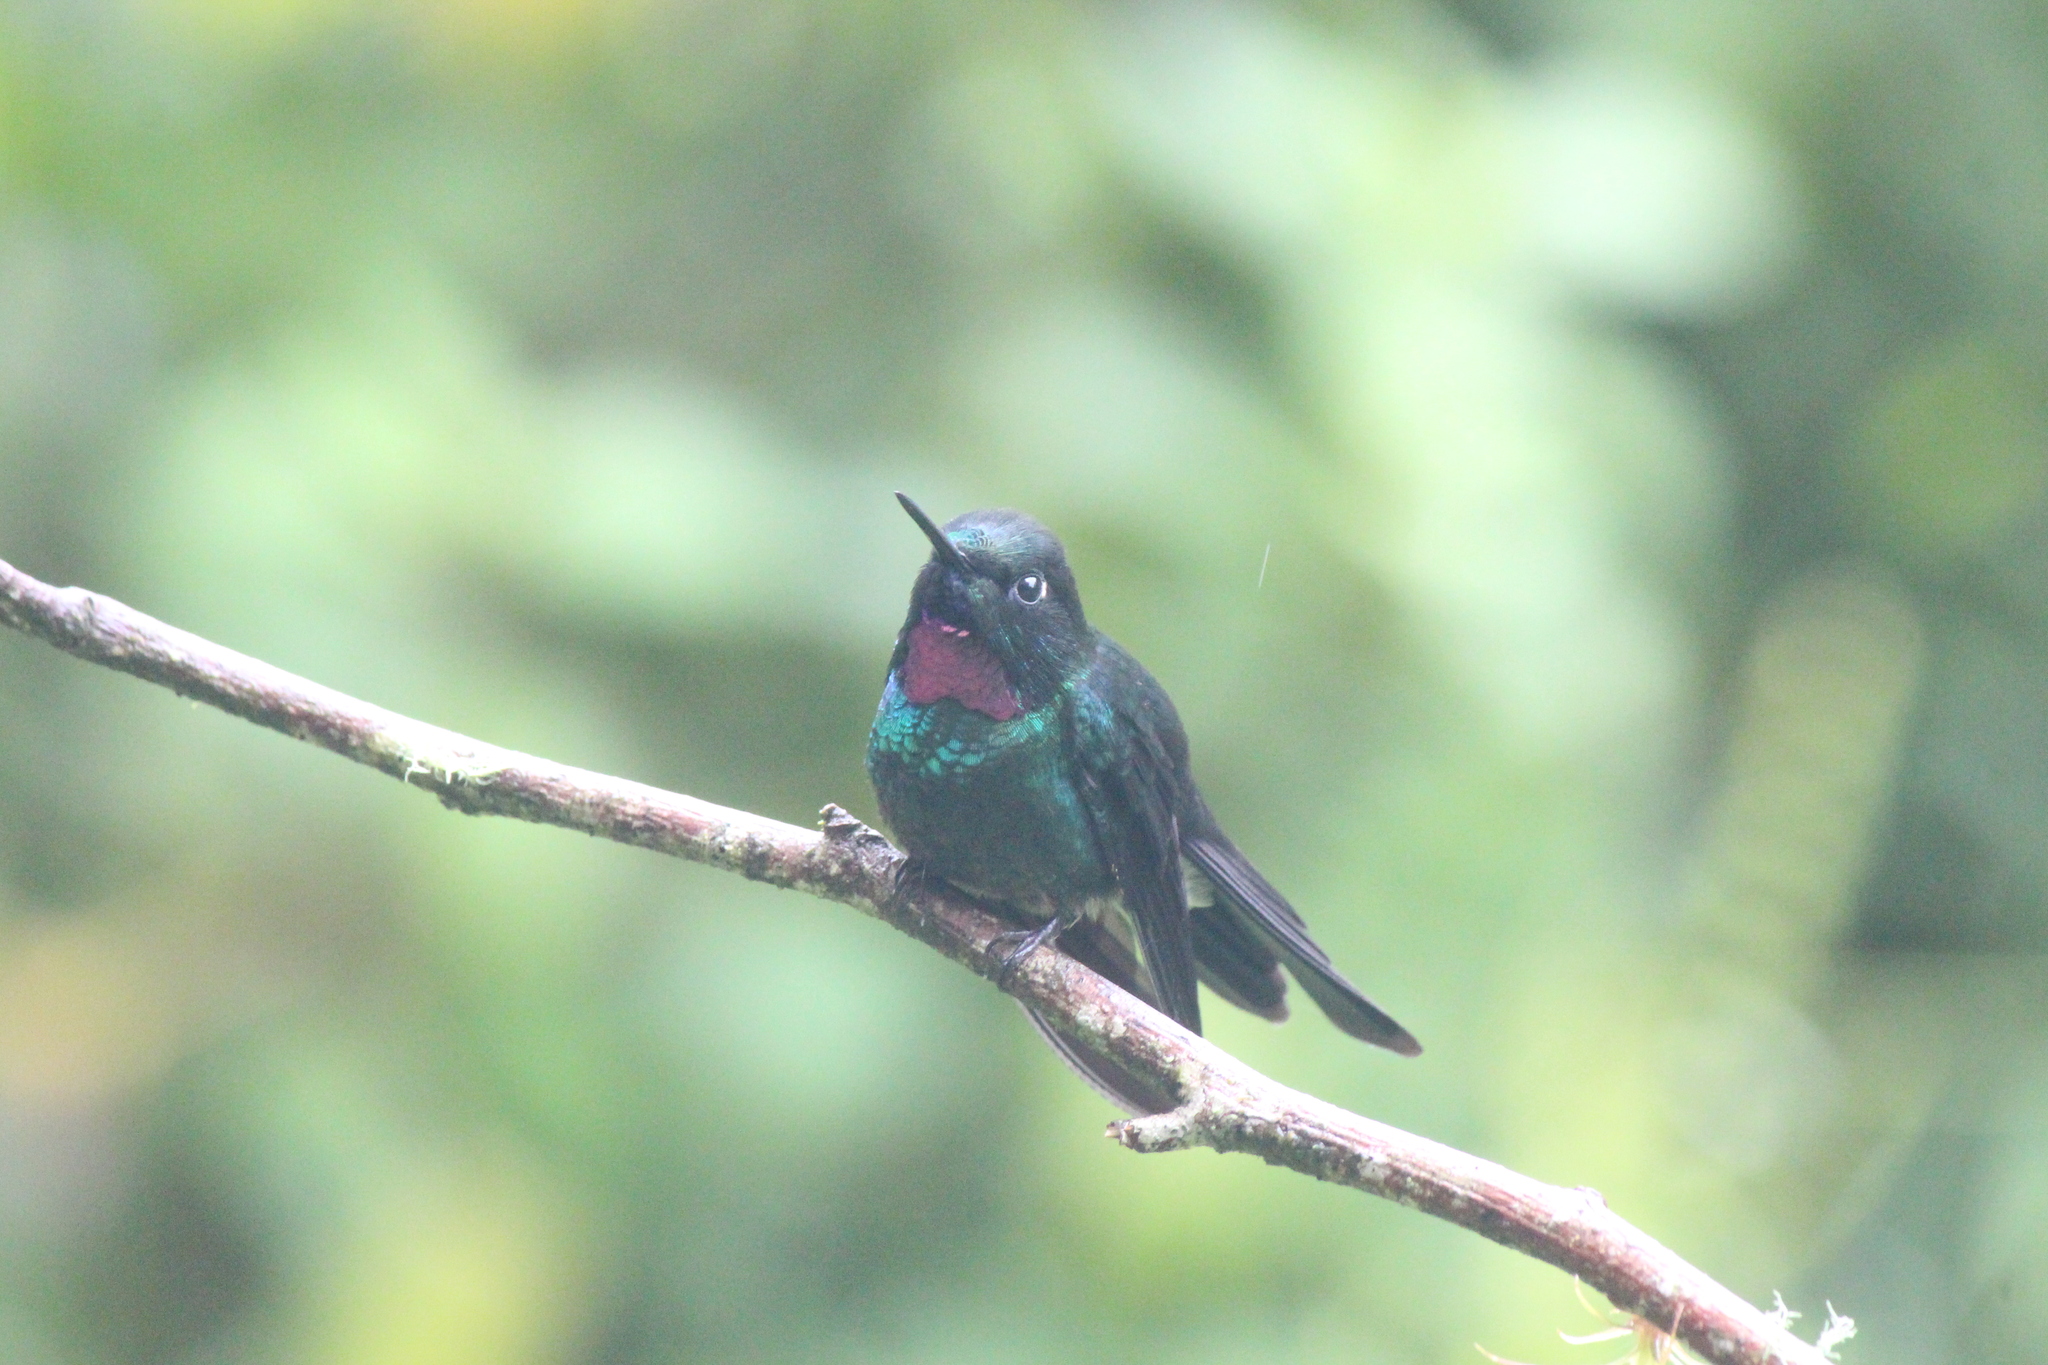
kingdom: Animalia
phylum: Chordata
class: Aves
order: Apodiformes
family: Trochilidae
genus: Heliangelus
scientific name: Heliangelus exortis
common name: Tourmaline sunangel
